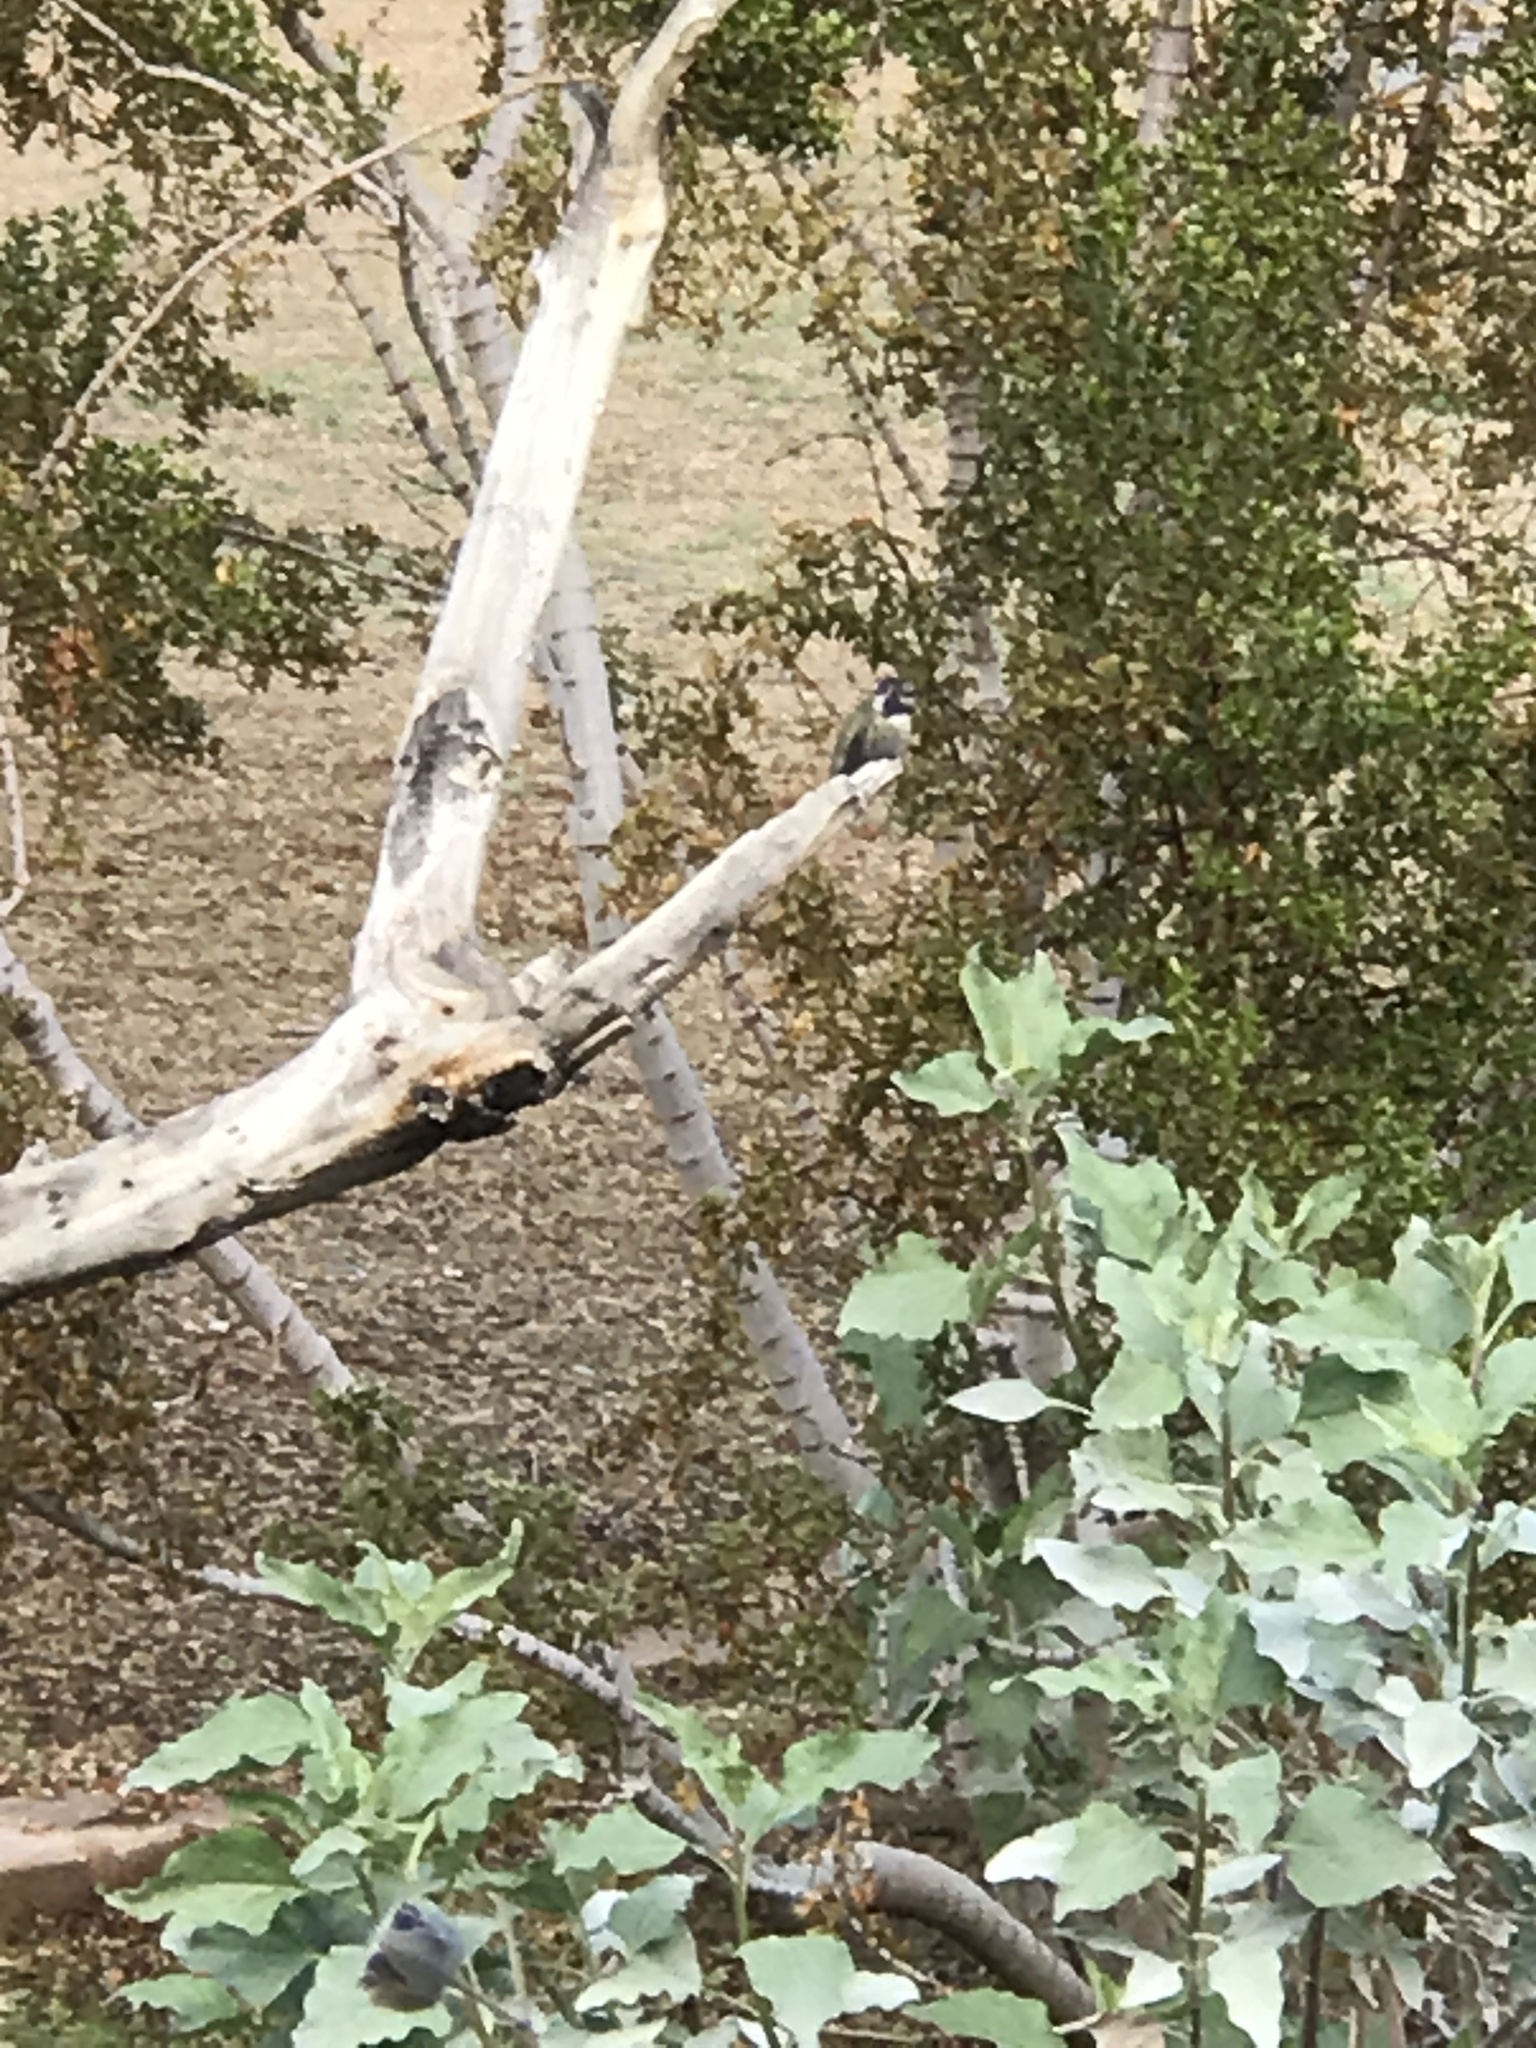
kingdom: Animalia
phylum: Chordata
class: Aves
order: Apodiformes
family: Trochilidae
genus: Calypte
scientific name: Calypte costae
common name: Costa's hummingbird
